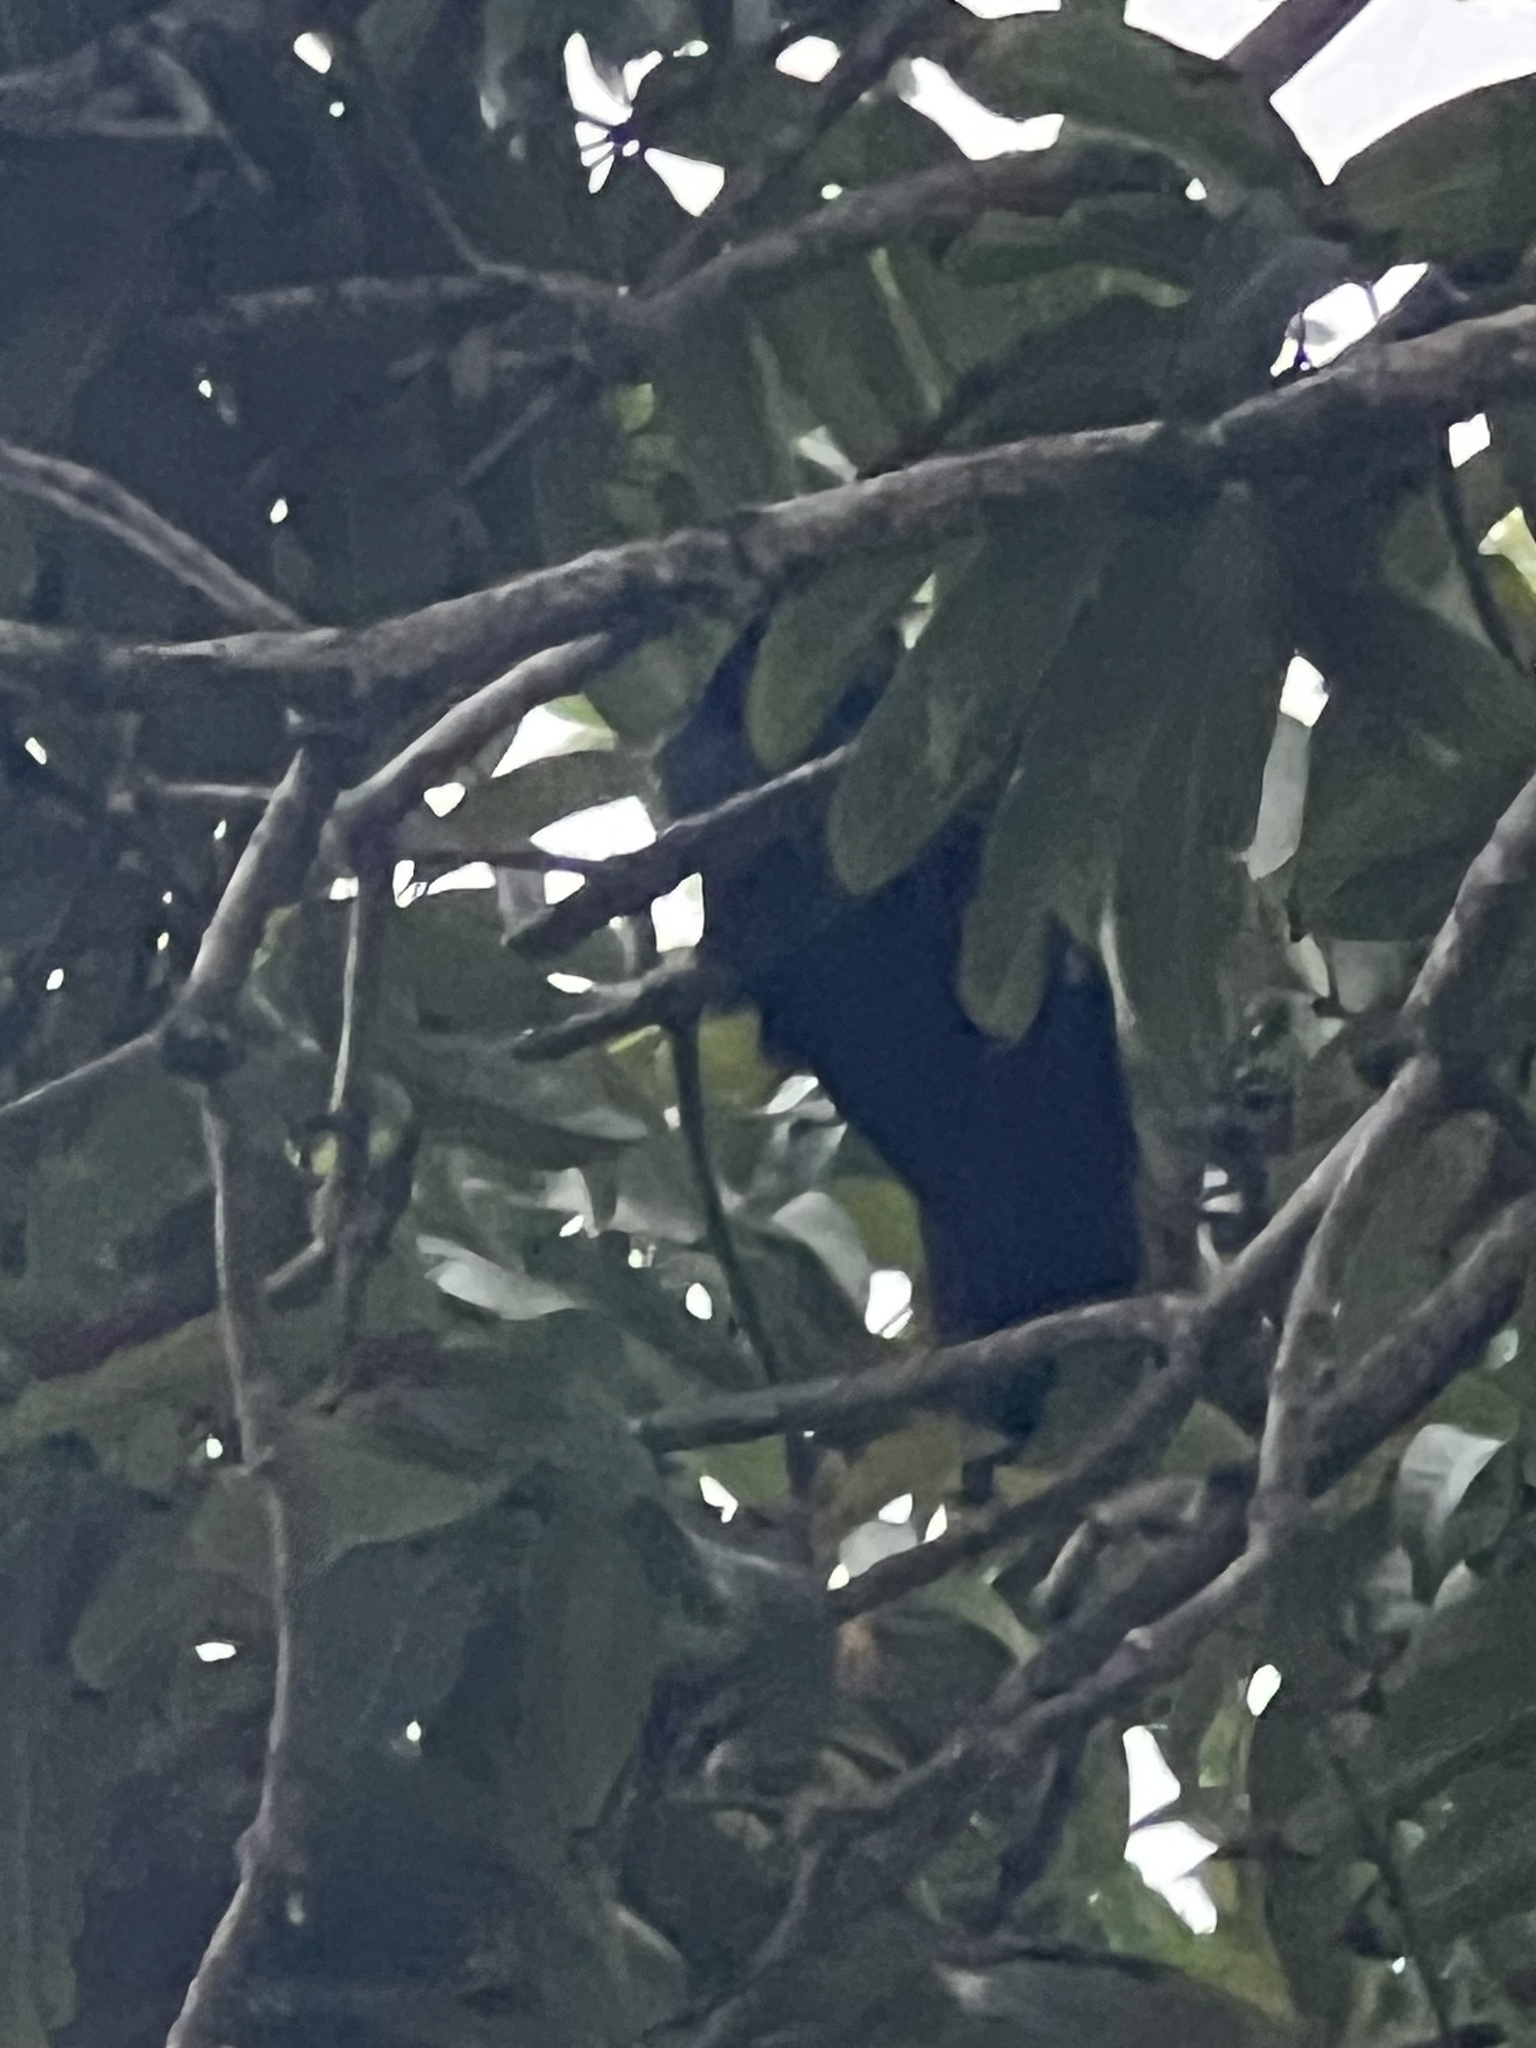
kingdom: Animalia
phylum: Chordata
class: Aves
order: Passeriformes
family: Icteridae
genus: Dives
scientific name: Dives dives
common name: Melodious blackbird
